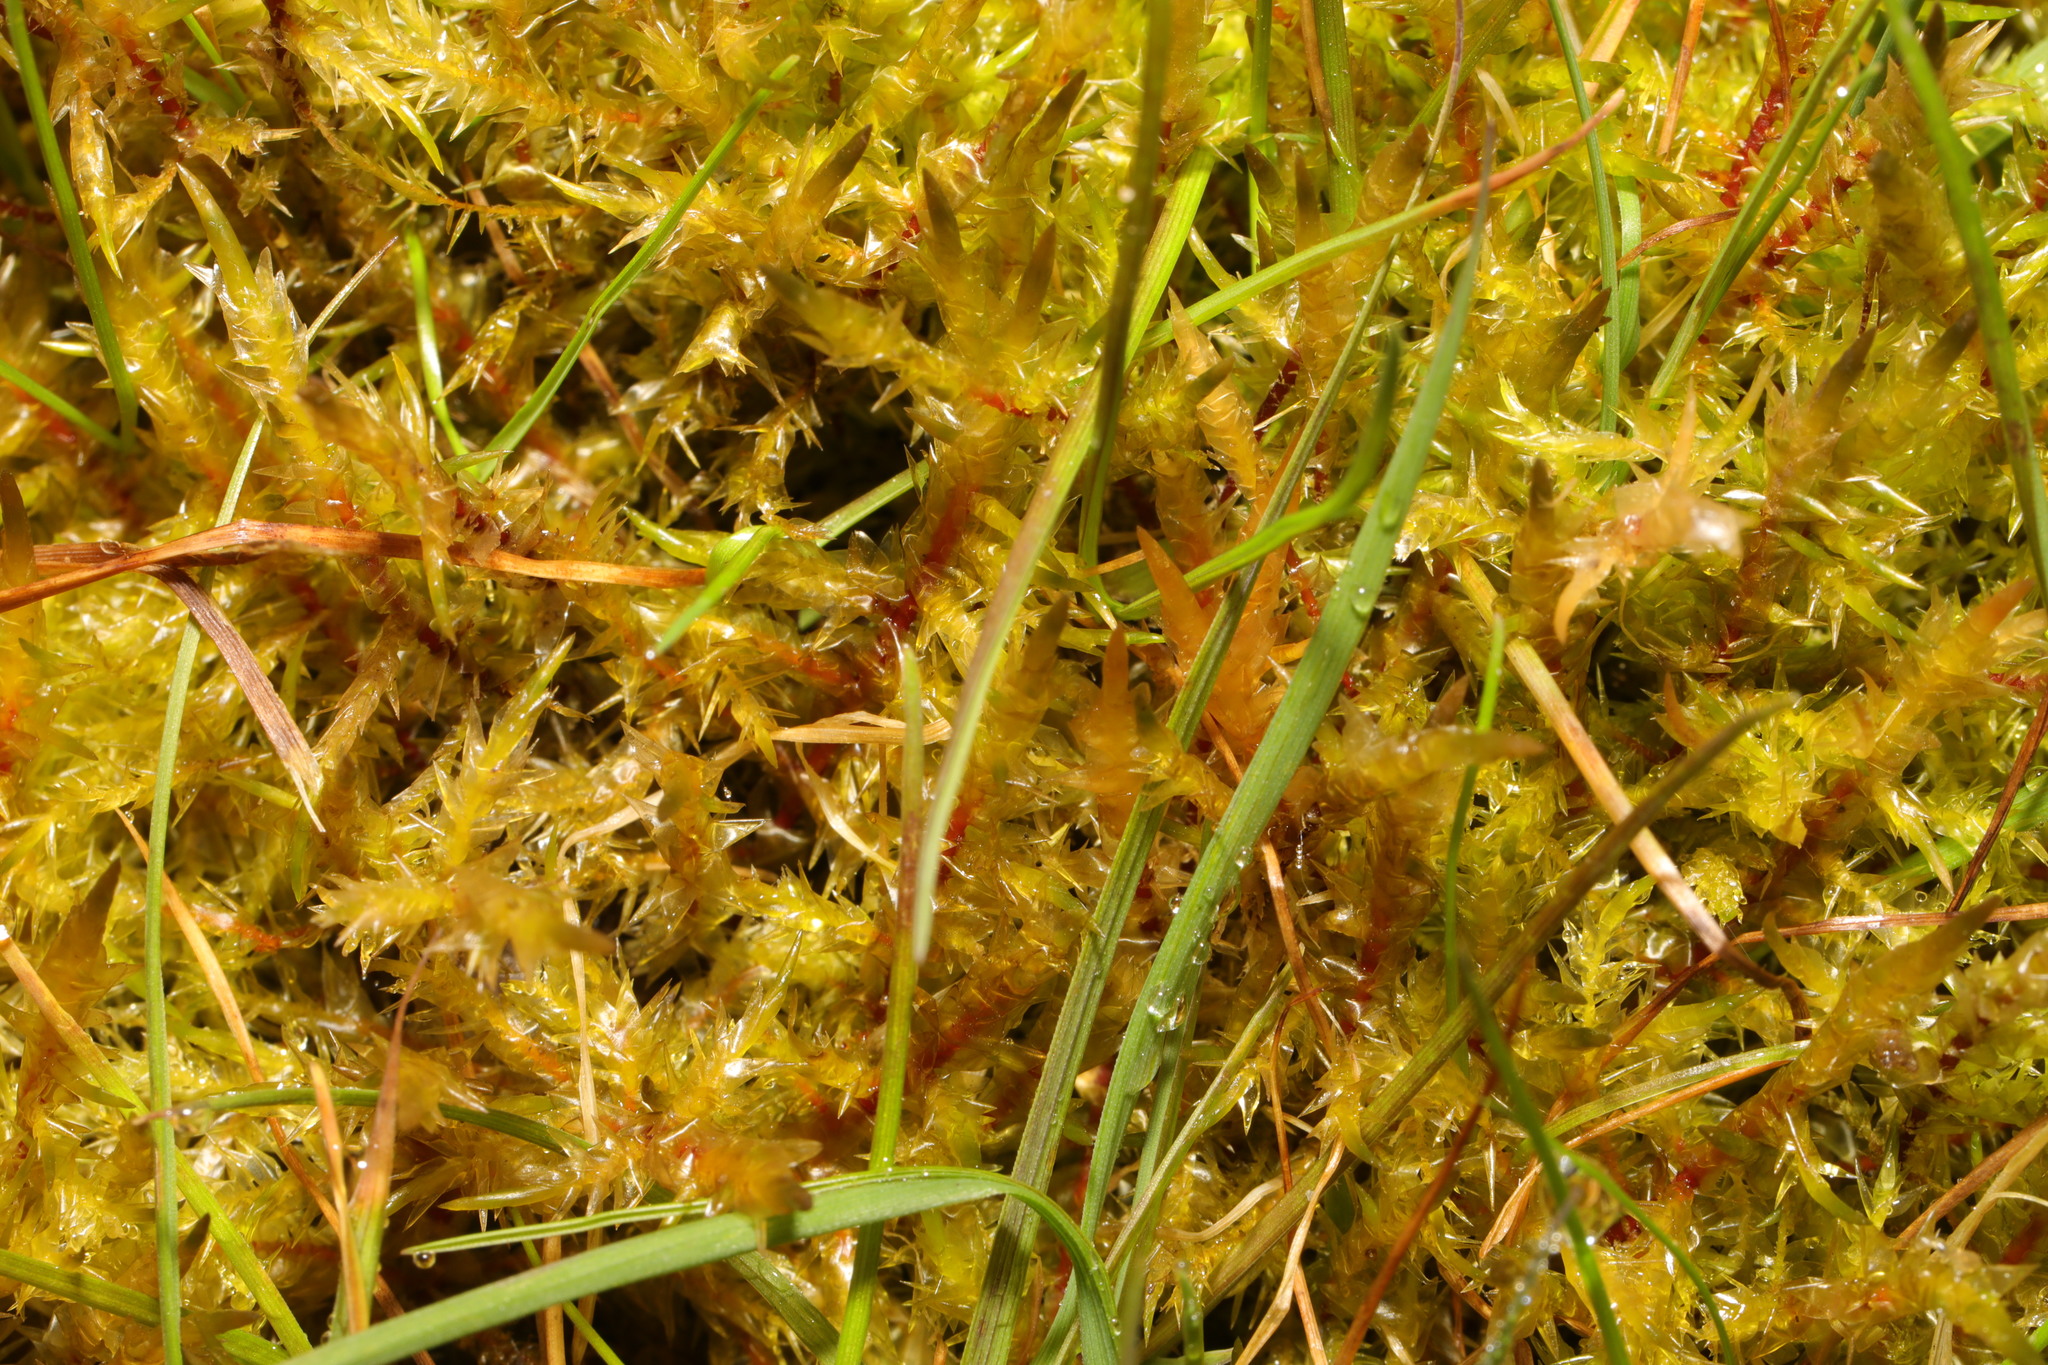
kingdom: Plantae
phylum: Bryophyta
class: Bryopsida
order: Hypnales
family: Pylaisiaceae
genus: Calliergonella
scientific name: Calliergonella cuspidata
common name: Common large wetland moss
